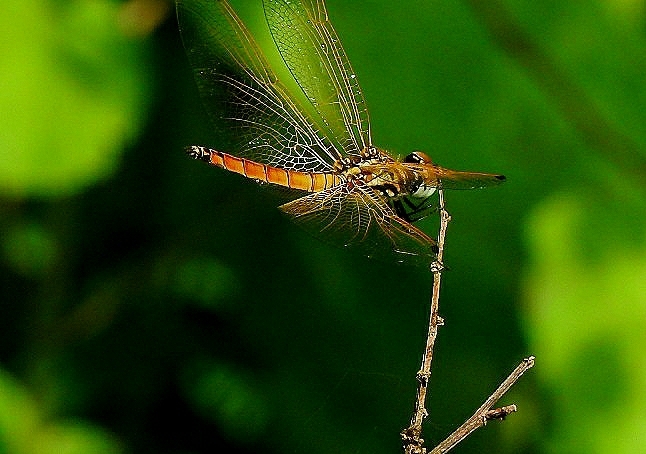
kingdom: Animalia
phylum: Arthropoda
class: Insecta
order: Odonata
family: Libellulidae
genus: Trithemis
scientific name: Trithemis aurora
